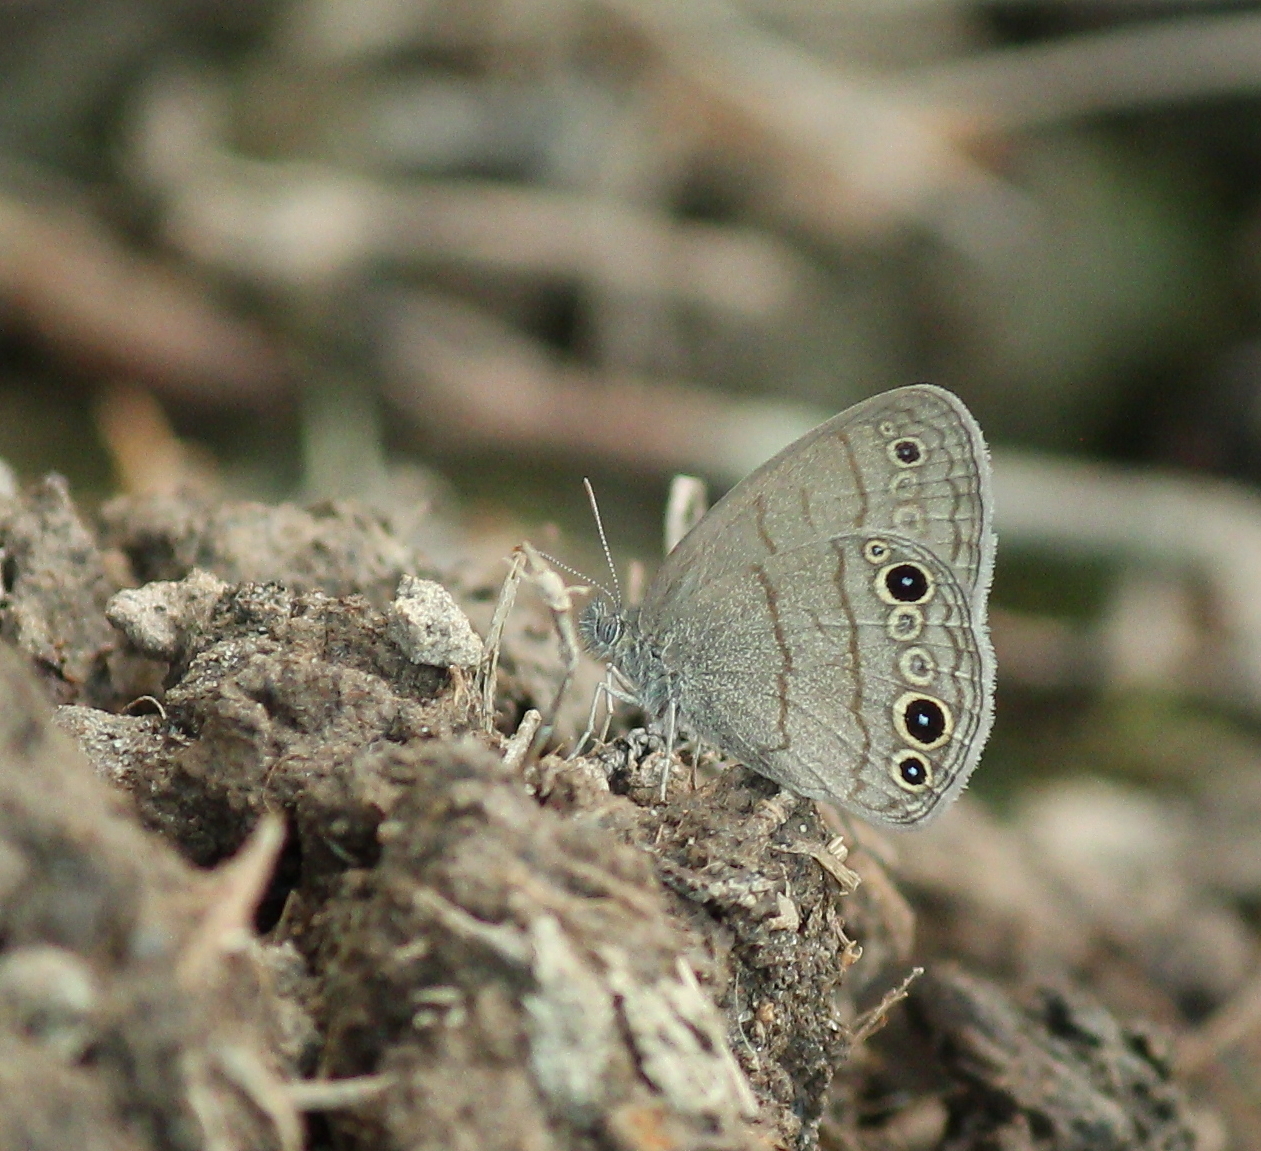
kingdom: Animalia
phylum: Arthropoda
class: Insecta
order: Lepidoptera
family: Nymphalidae
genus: Hermeuptychia
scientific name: Hermeuptychia hermes
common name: Hermes satyr
